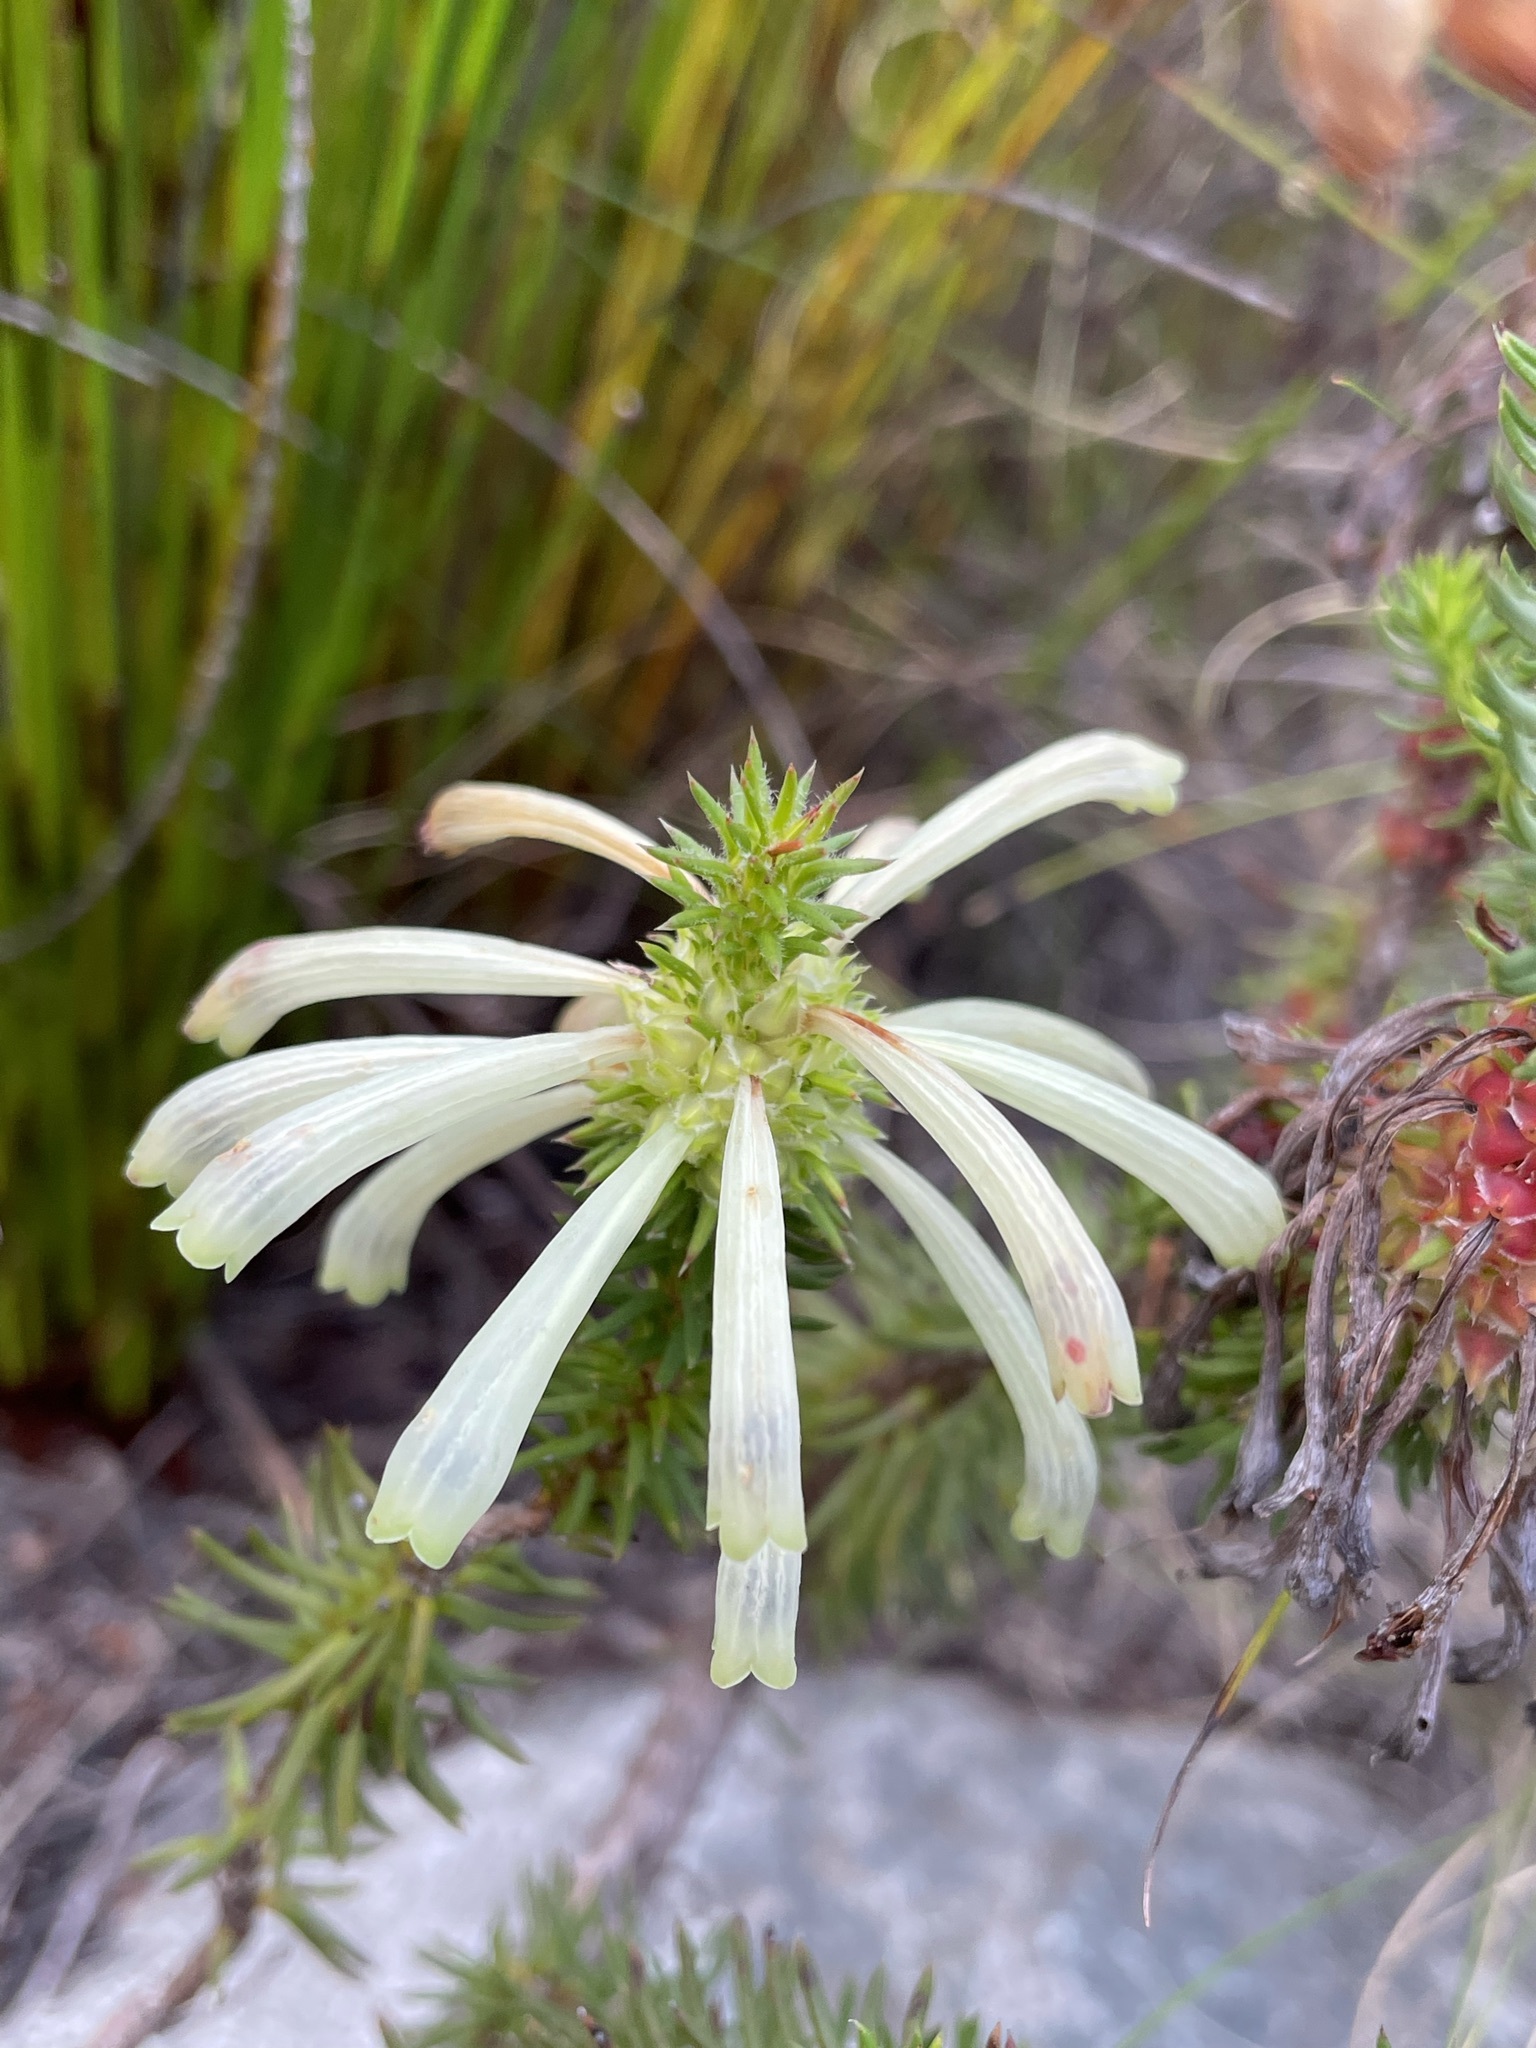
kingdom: Plantae
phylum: Tracheophyta
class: Magnoliopsida
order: Ericales
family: Ericaceae
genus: Erica
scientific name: Erica sessiliflora
